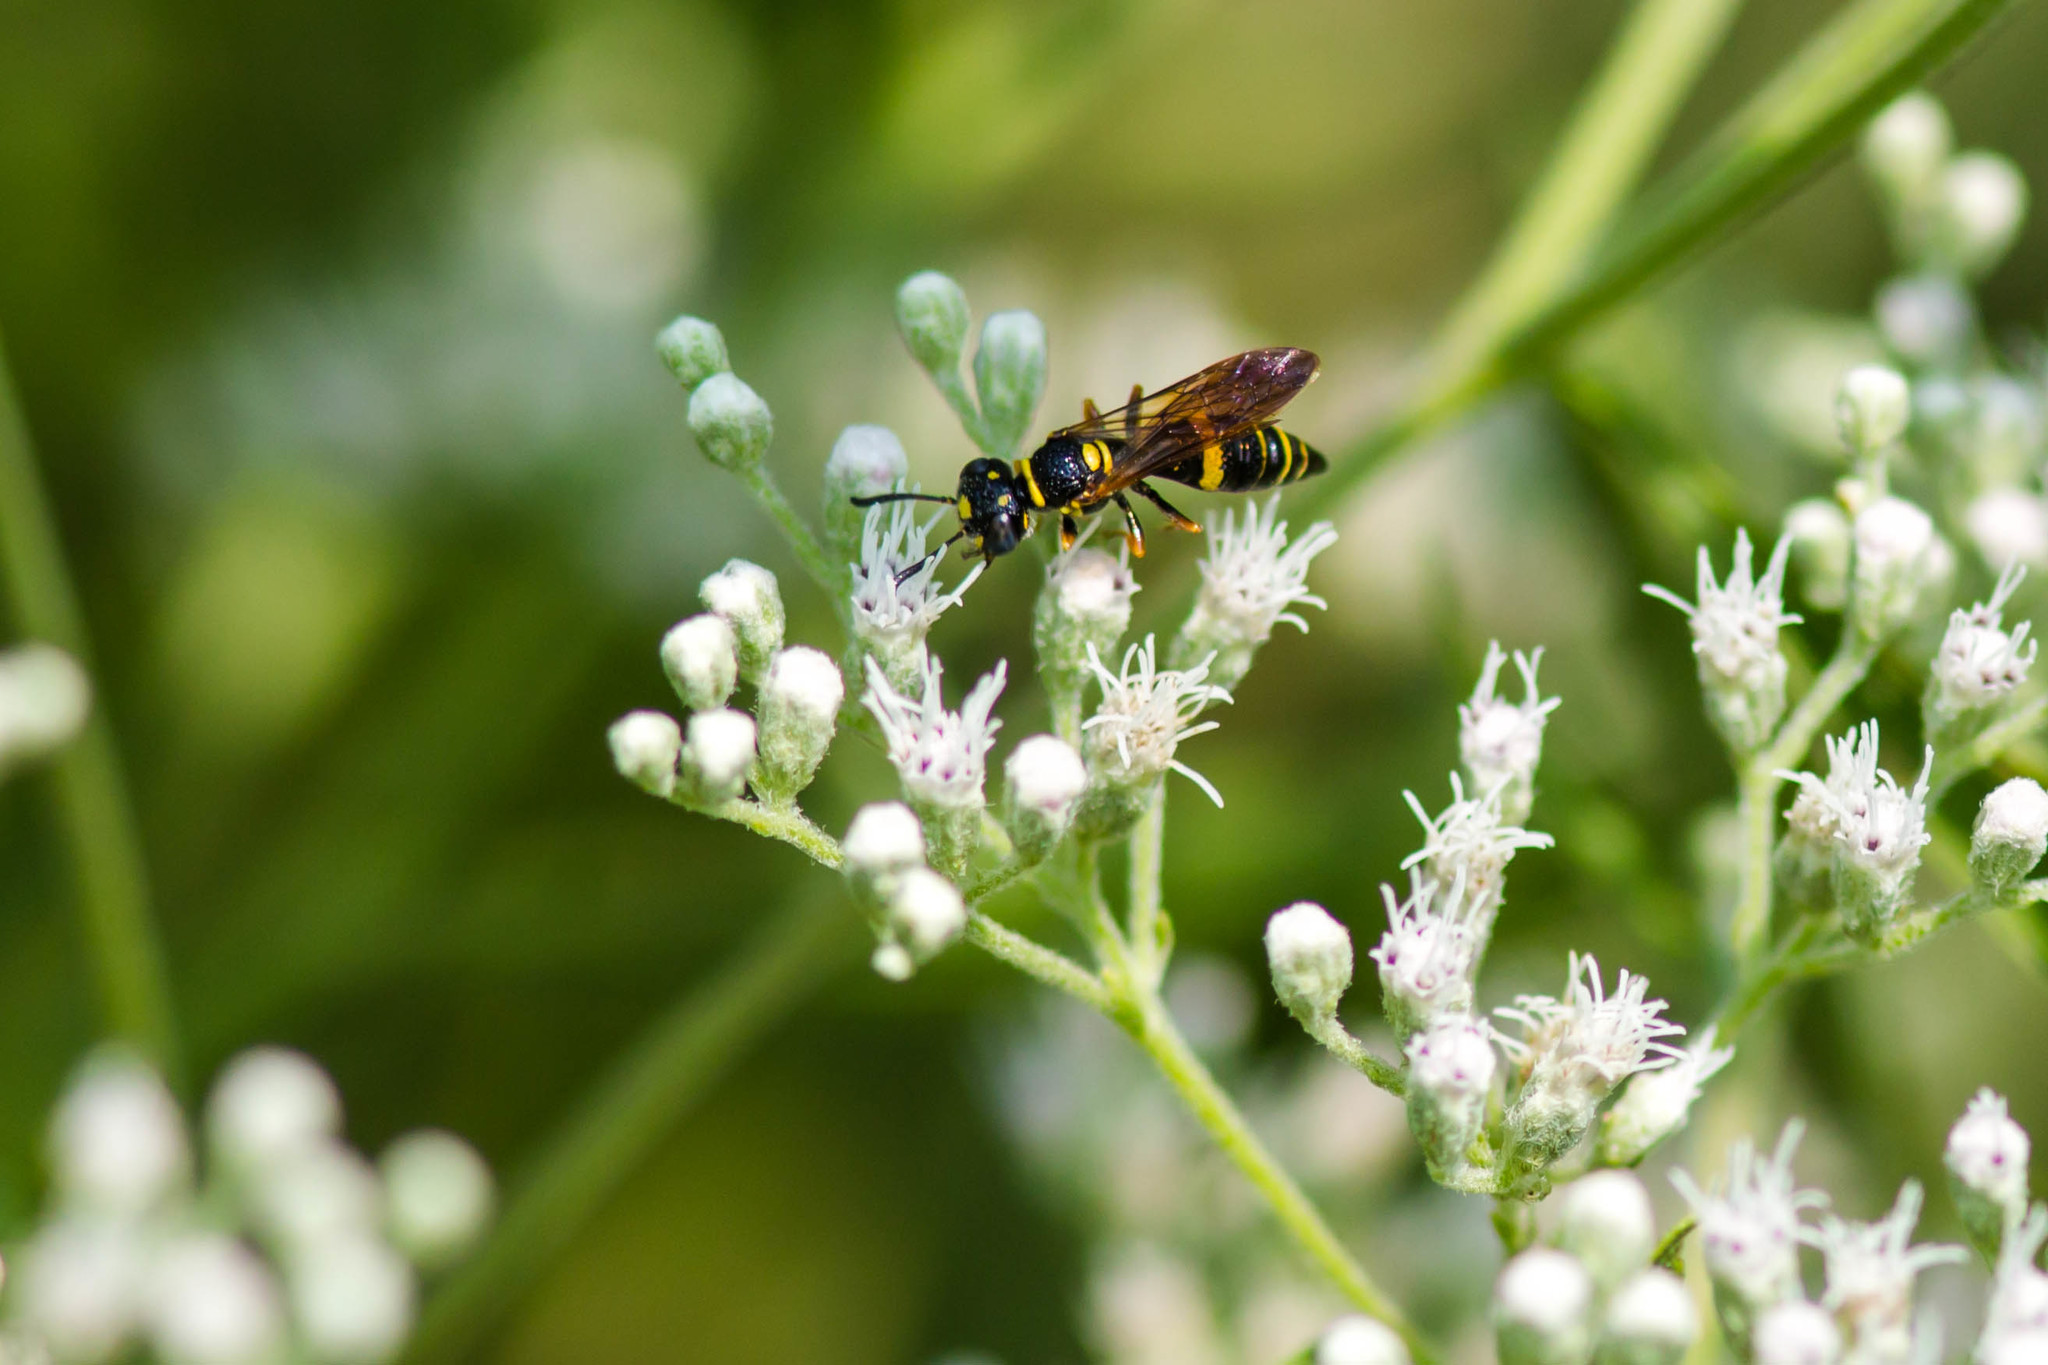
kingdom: Animalia
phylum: Arthropoda
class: Insecta
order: Hymenoptera
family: Crabronidae
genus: Philanthus
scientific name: Philanthus gibbosus
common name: Humped beewolf
